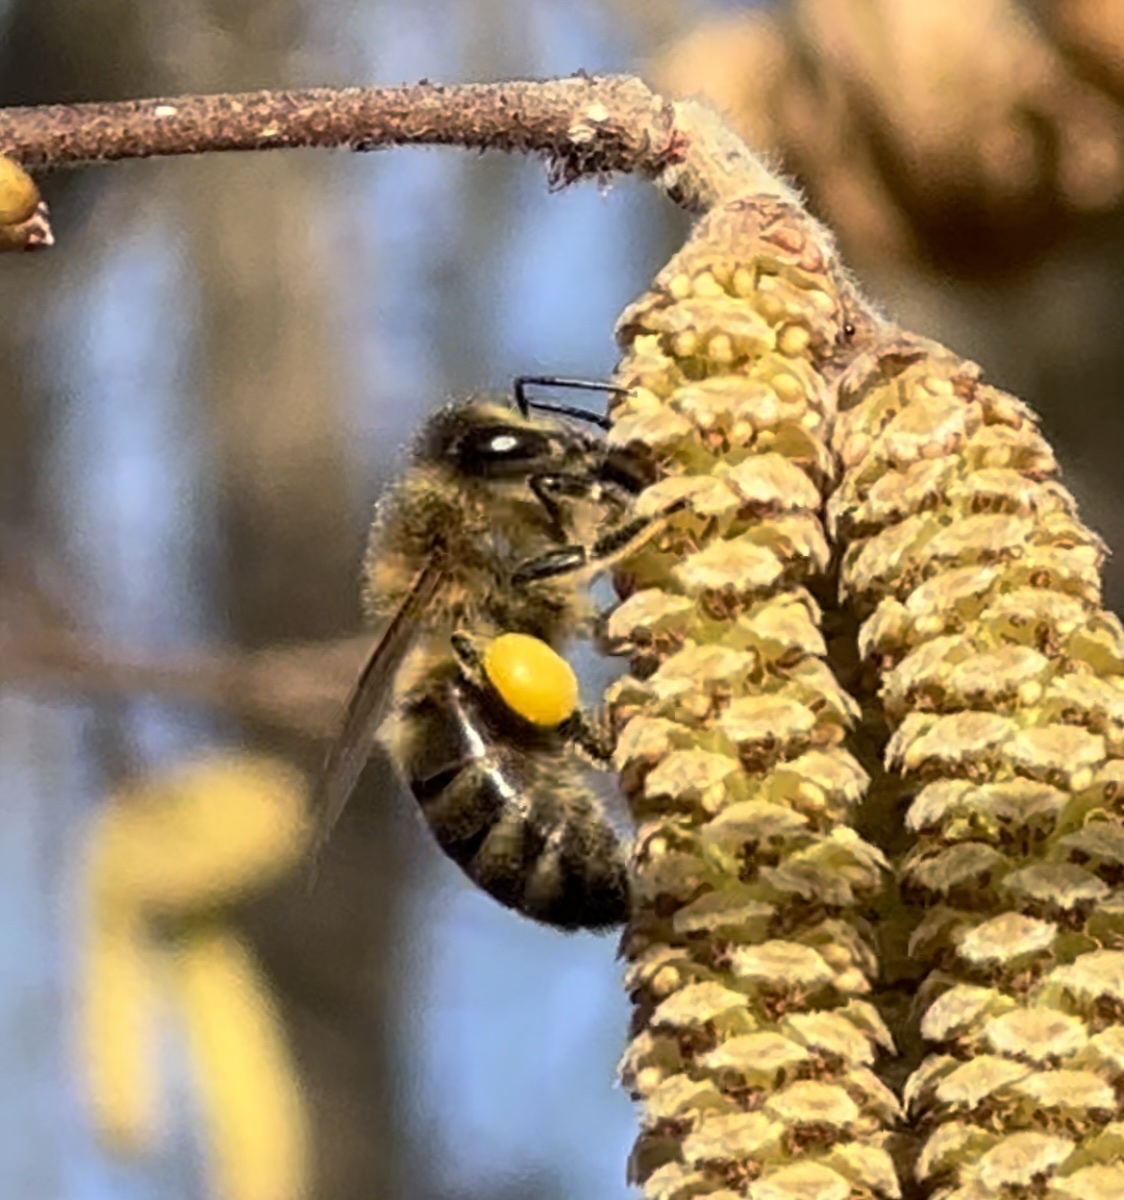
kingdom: Animalia
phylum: Arthropoda
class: Insecta
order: Hymenoptera
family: Apidae
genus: Apis
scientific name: Apis mellifera
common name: Honey bee
